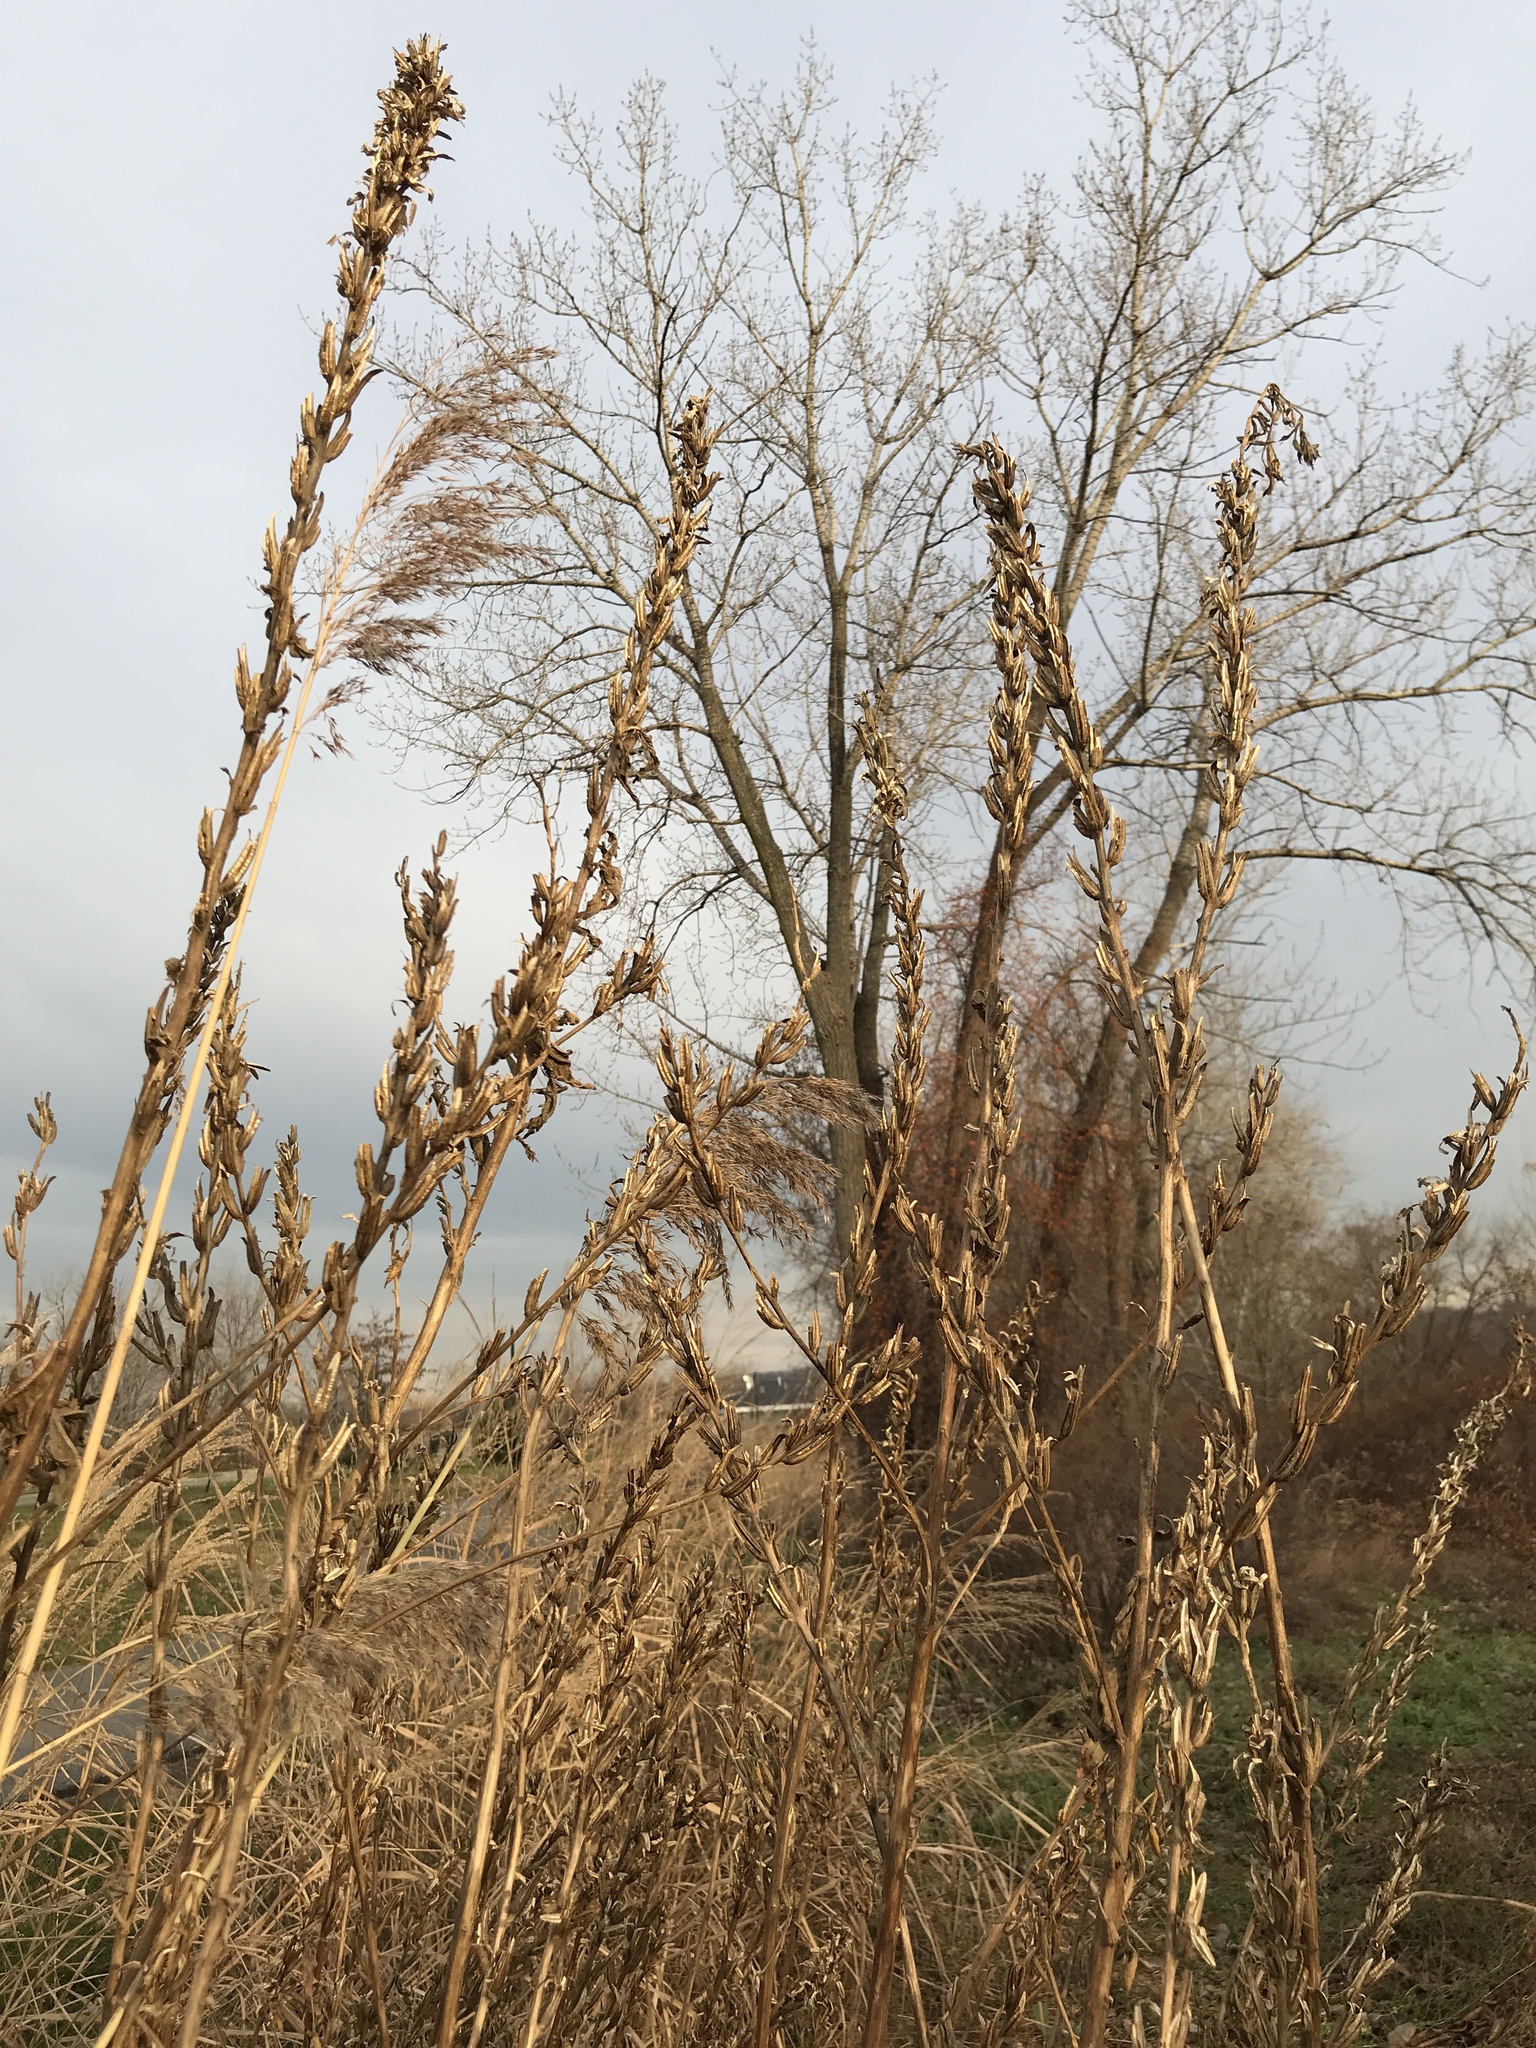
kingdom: Plantae
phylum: Tracheophyta
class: Magnoliopsida
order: Myrtales
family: Onagraceae
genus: Oenothera
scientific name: Oenothera biennis
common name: Common evening-primrose
